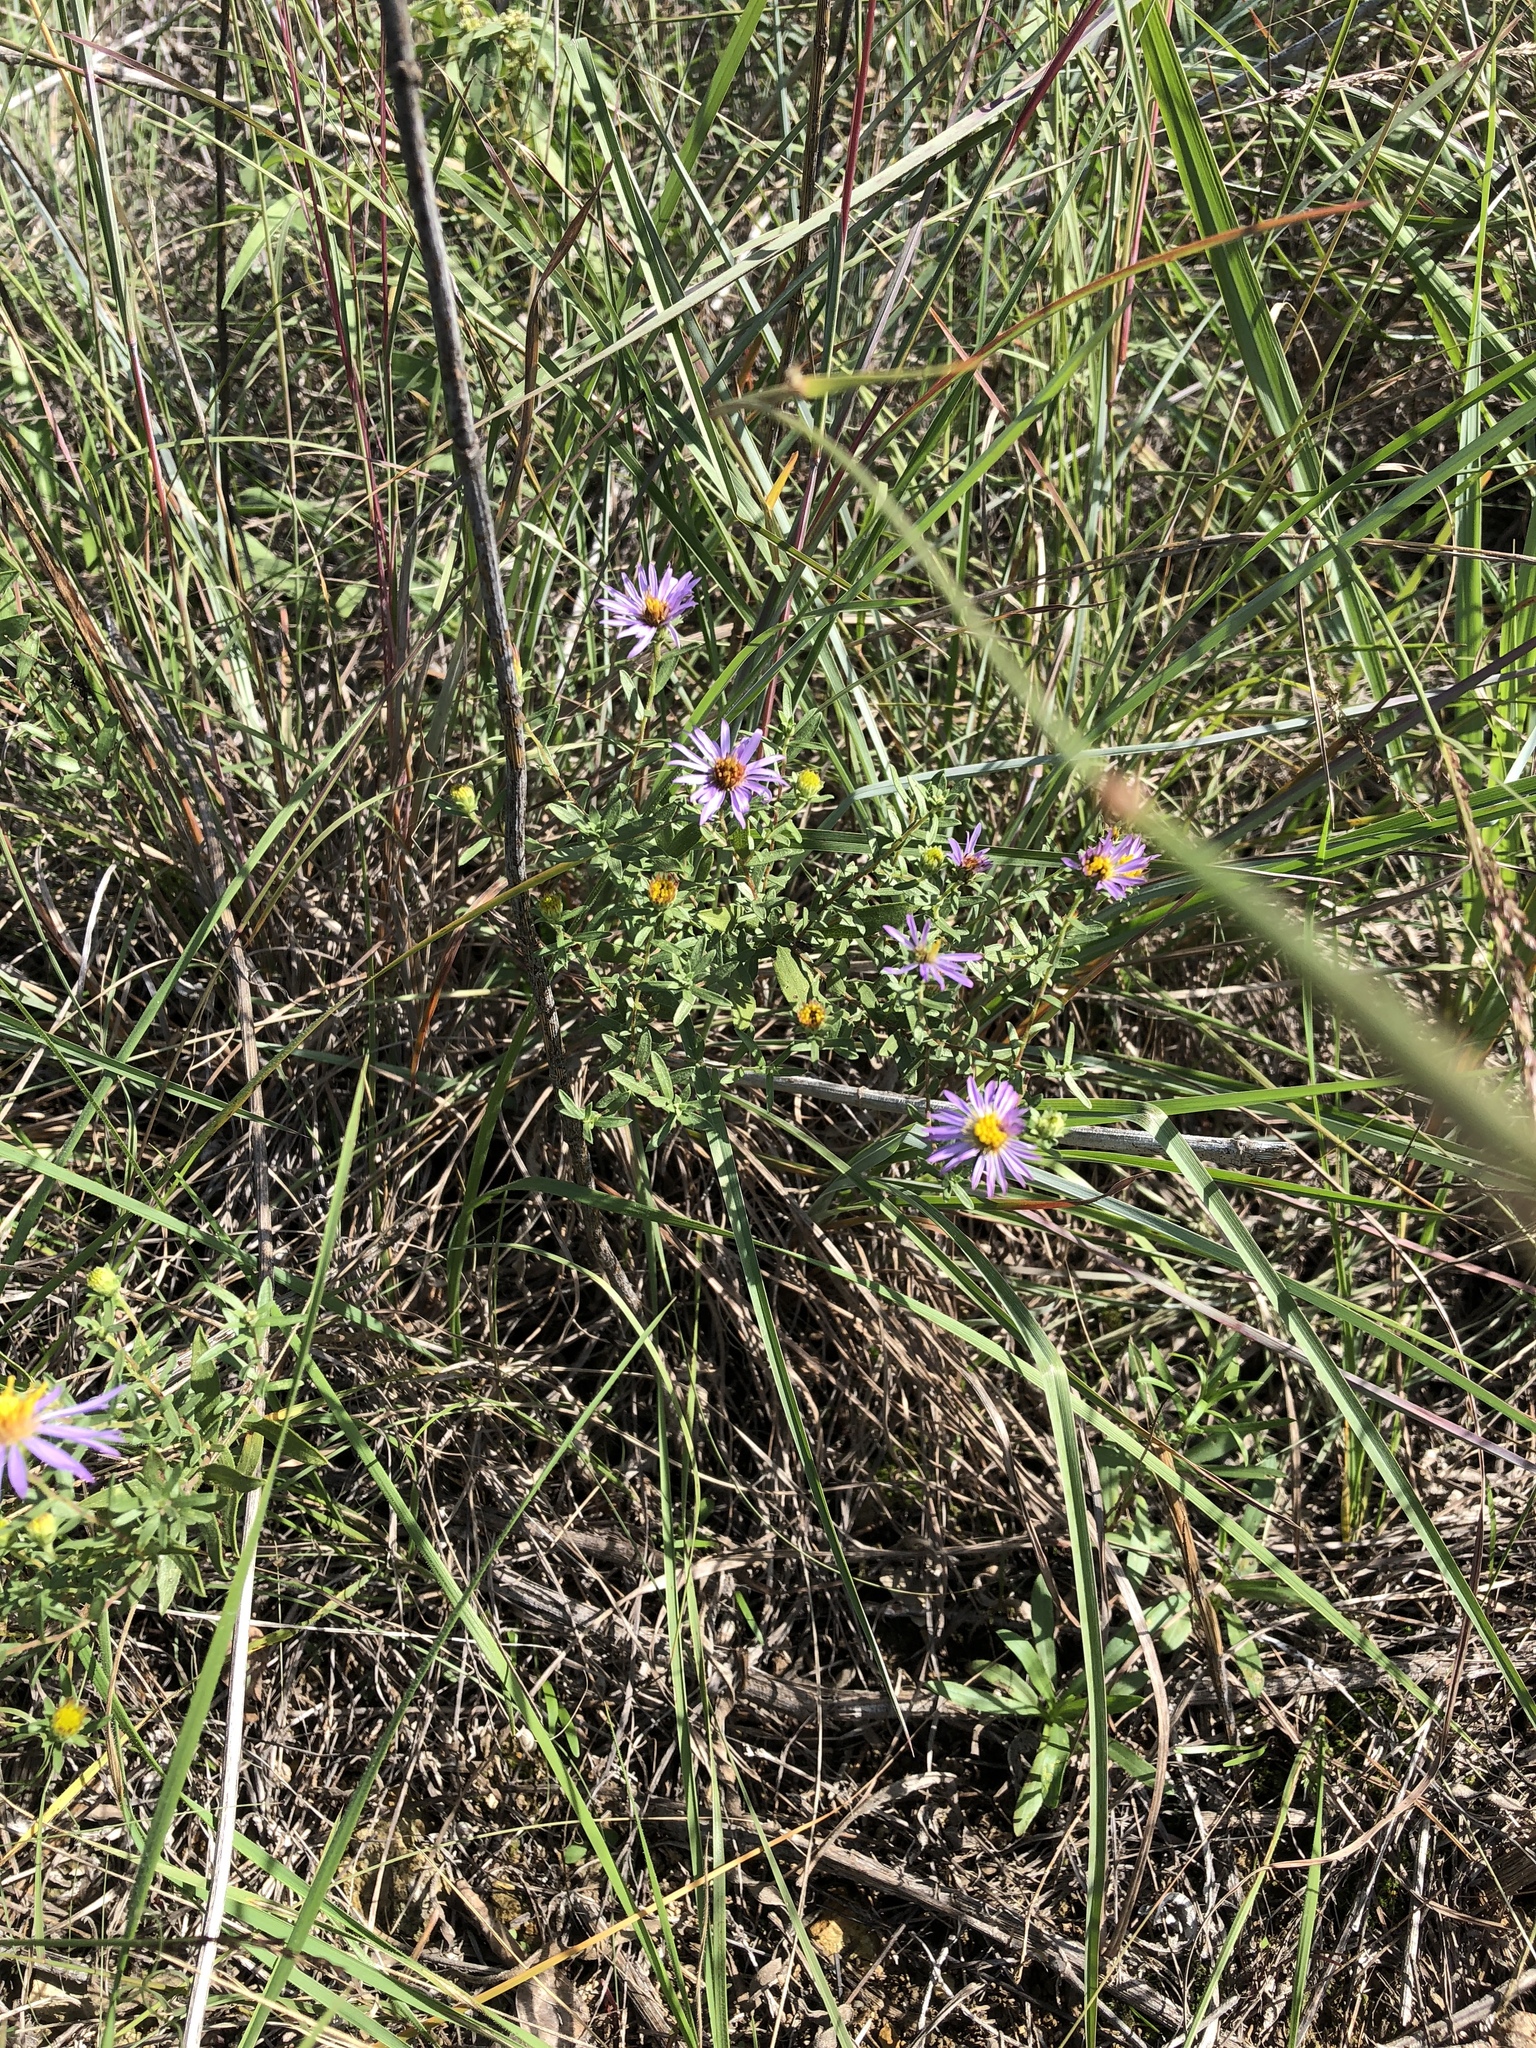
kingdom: Plantae
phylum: Tracheophyta
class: Magnoliopsida
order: Asterales
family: Asteraceae
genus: Symphyotrichum
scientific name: Symphyotrichum oblongifolium
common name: Aromatic aster
